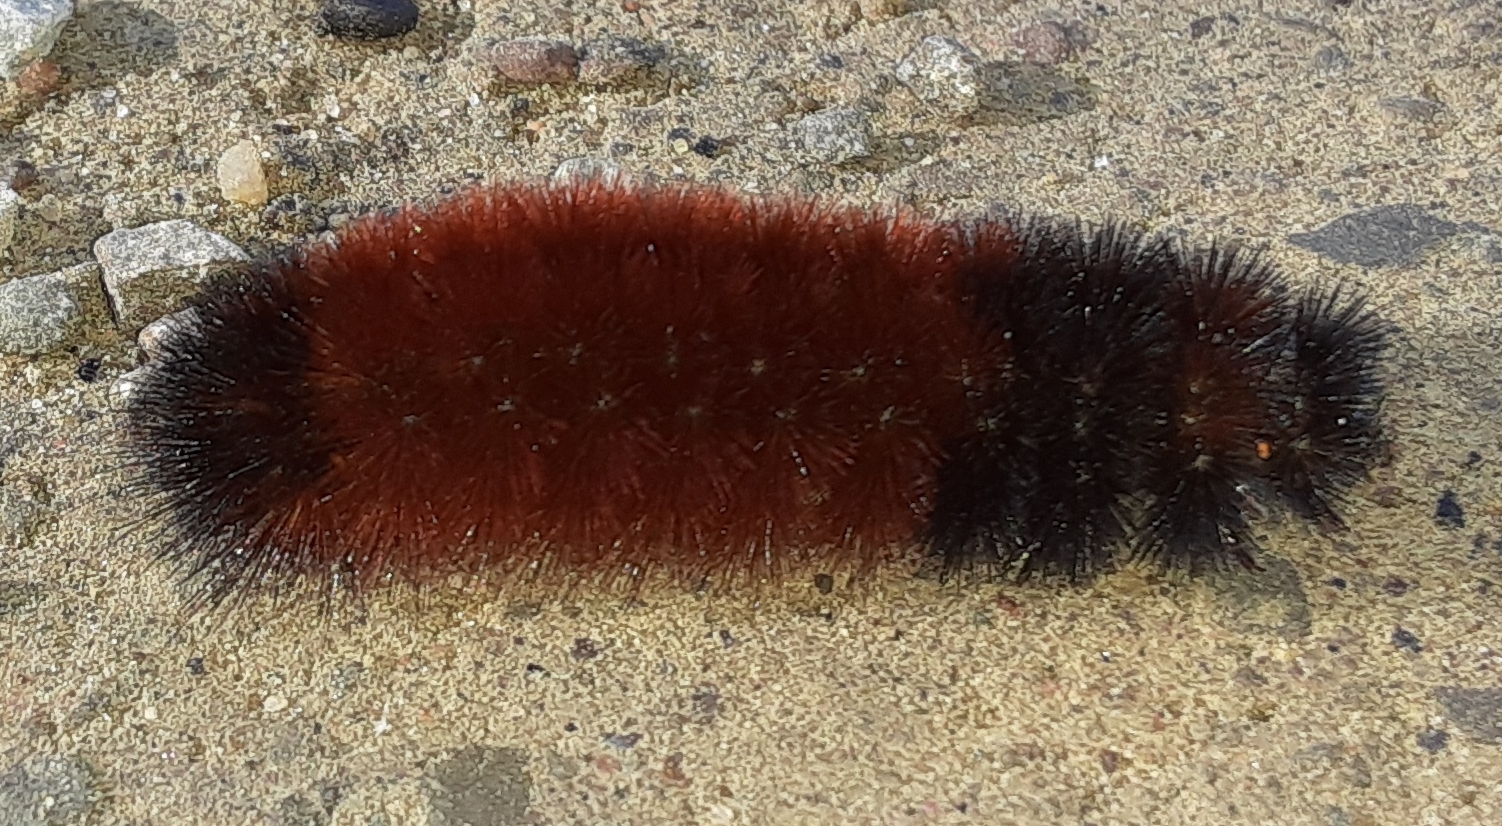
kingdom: Animalia
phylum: Arthropoda
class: Insecta
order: Lepidoptera
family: Erebidae
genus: Pyrrharctia
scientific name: Pyrrharctia isabella
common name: Isabella tiger moth
